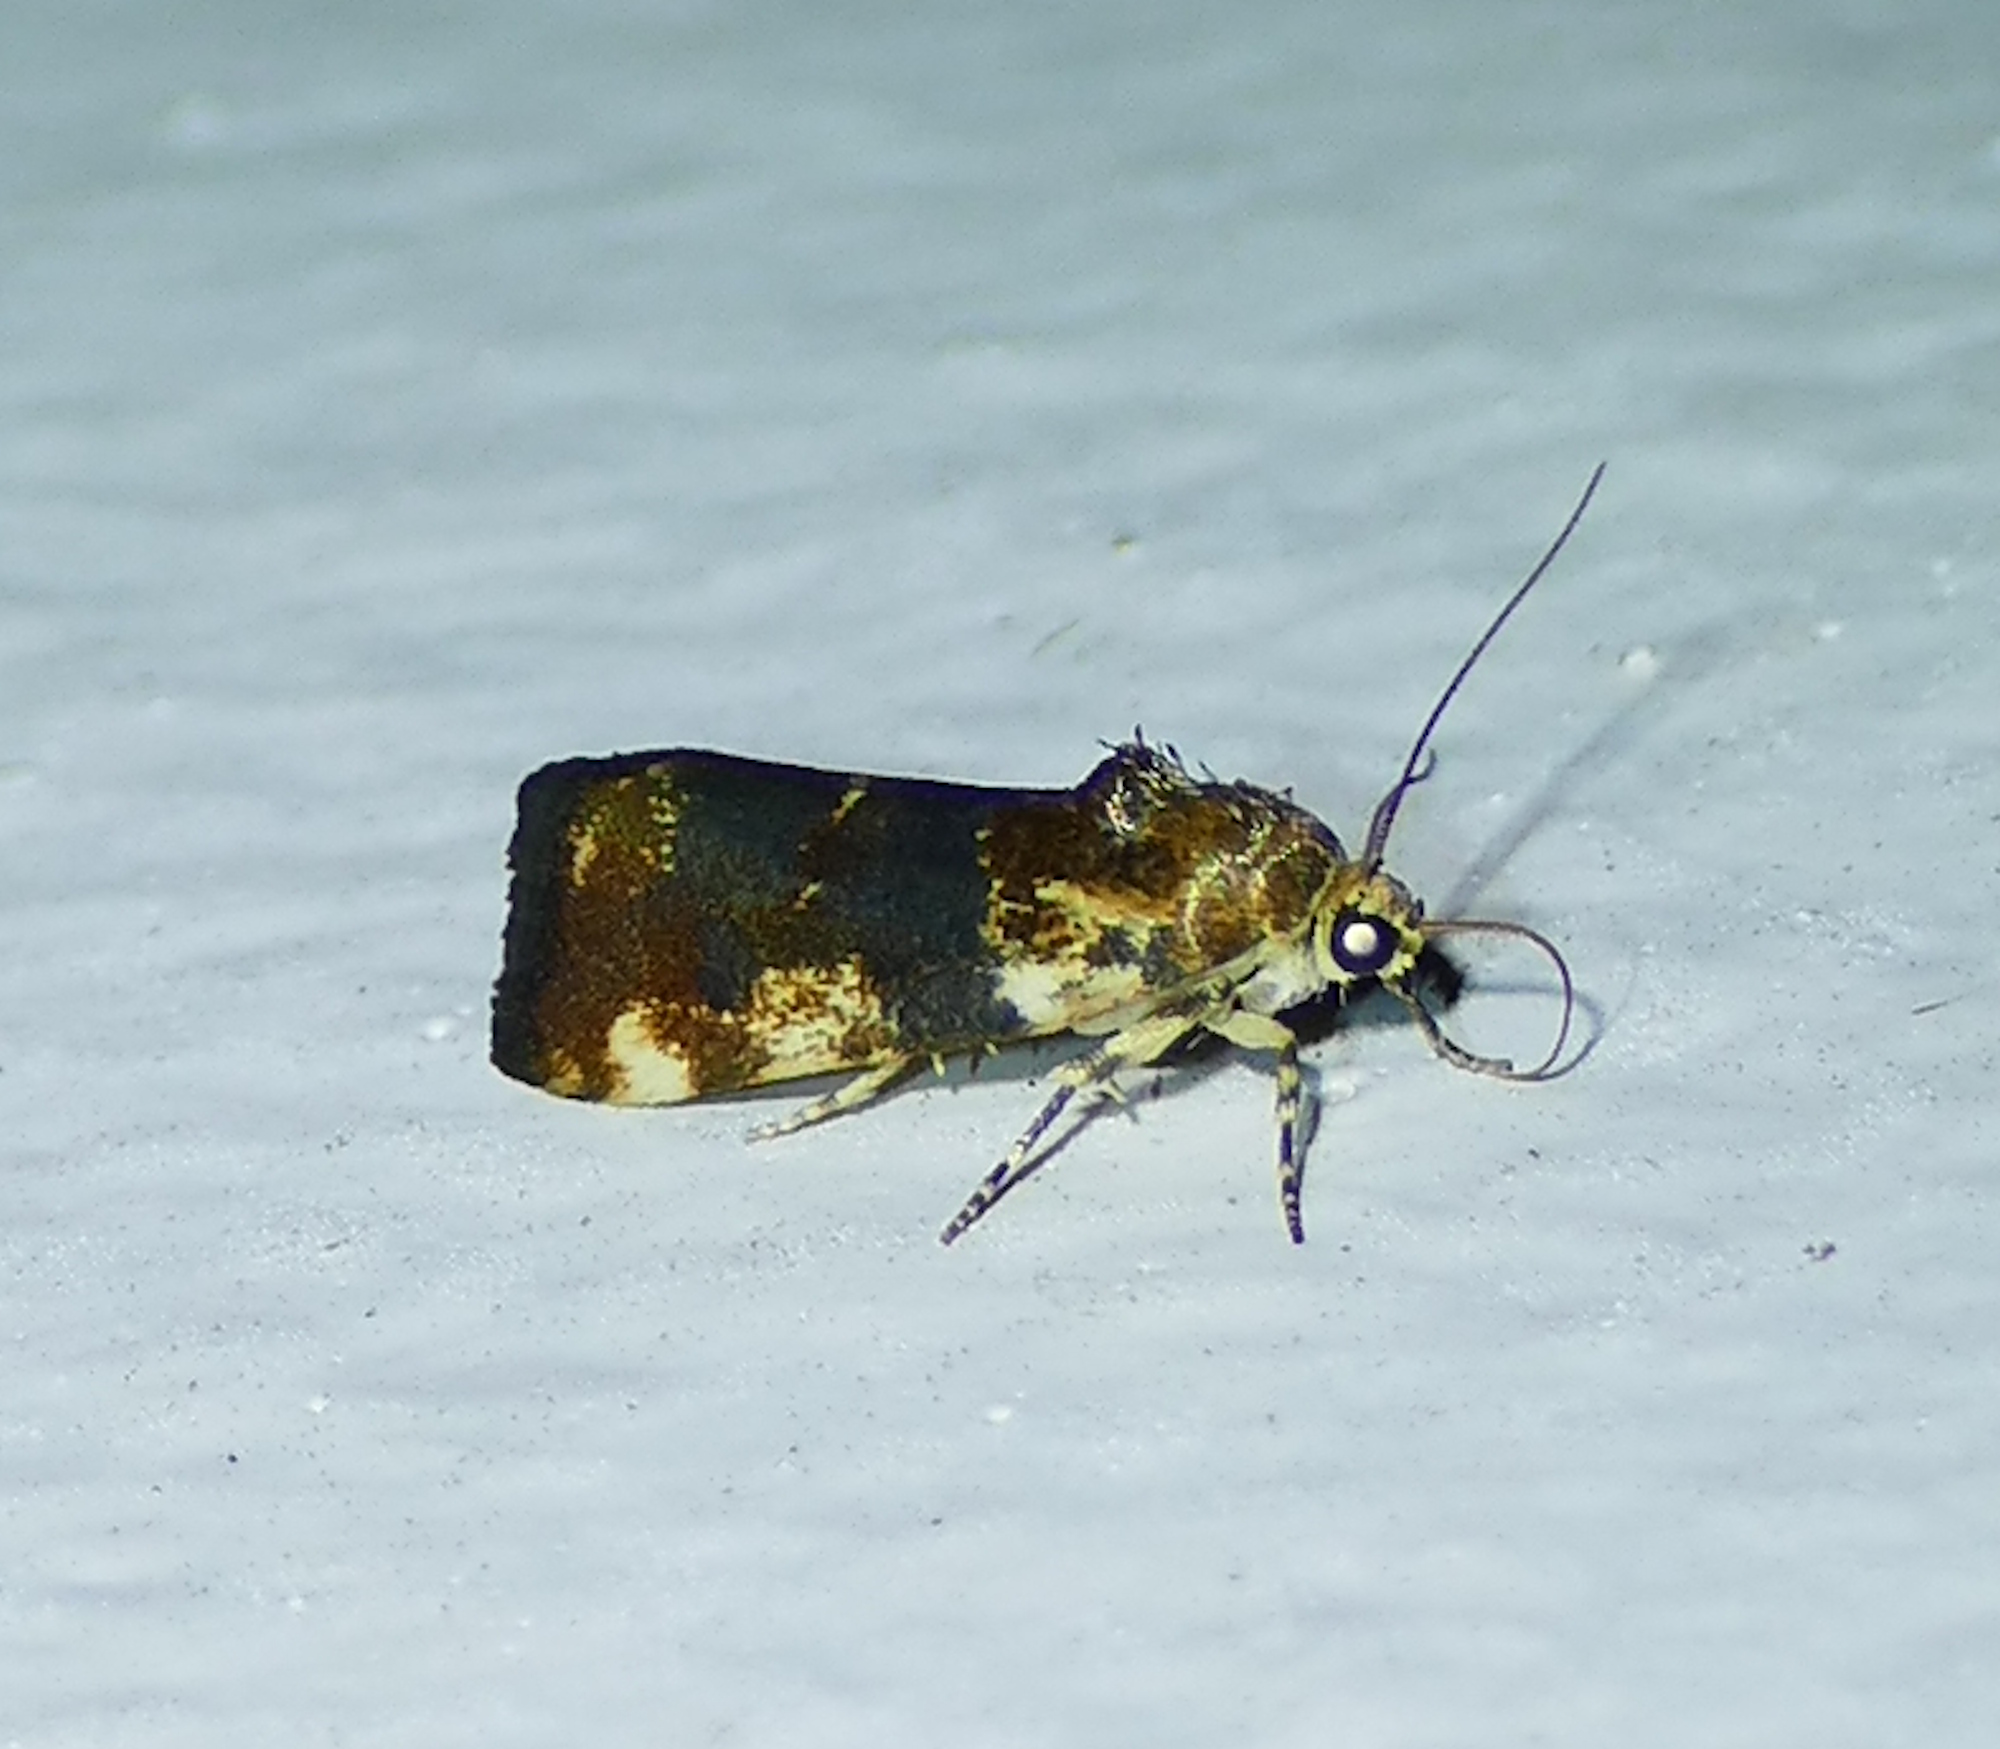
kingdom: Animalia
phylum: Arthropoda
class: Insecta
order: Lepidoptera
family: Noctuidae
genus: Acontia
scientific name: Acontia obatra
